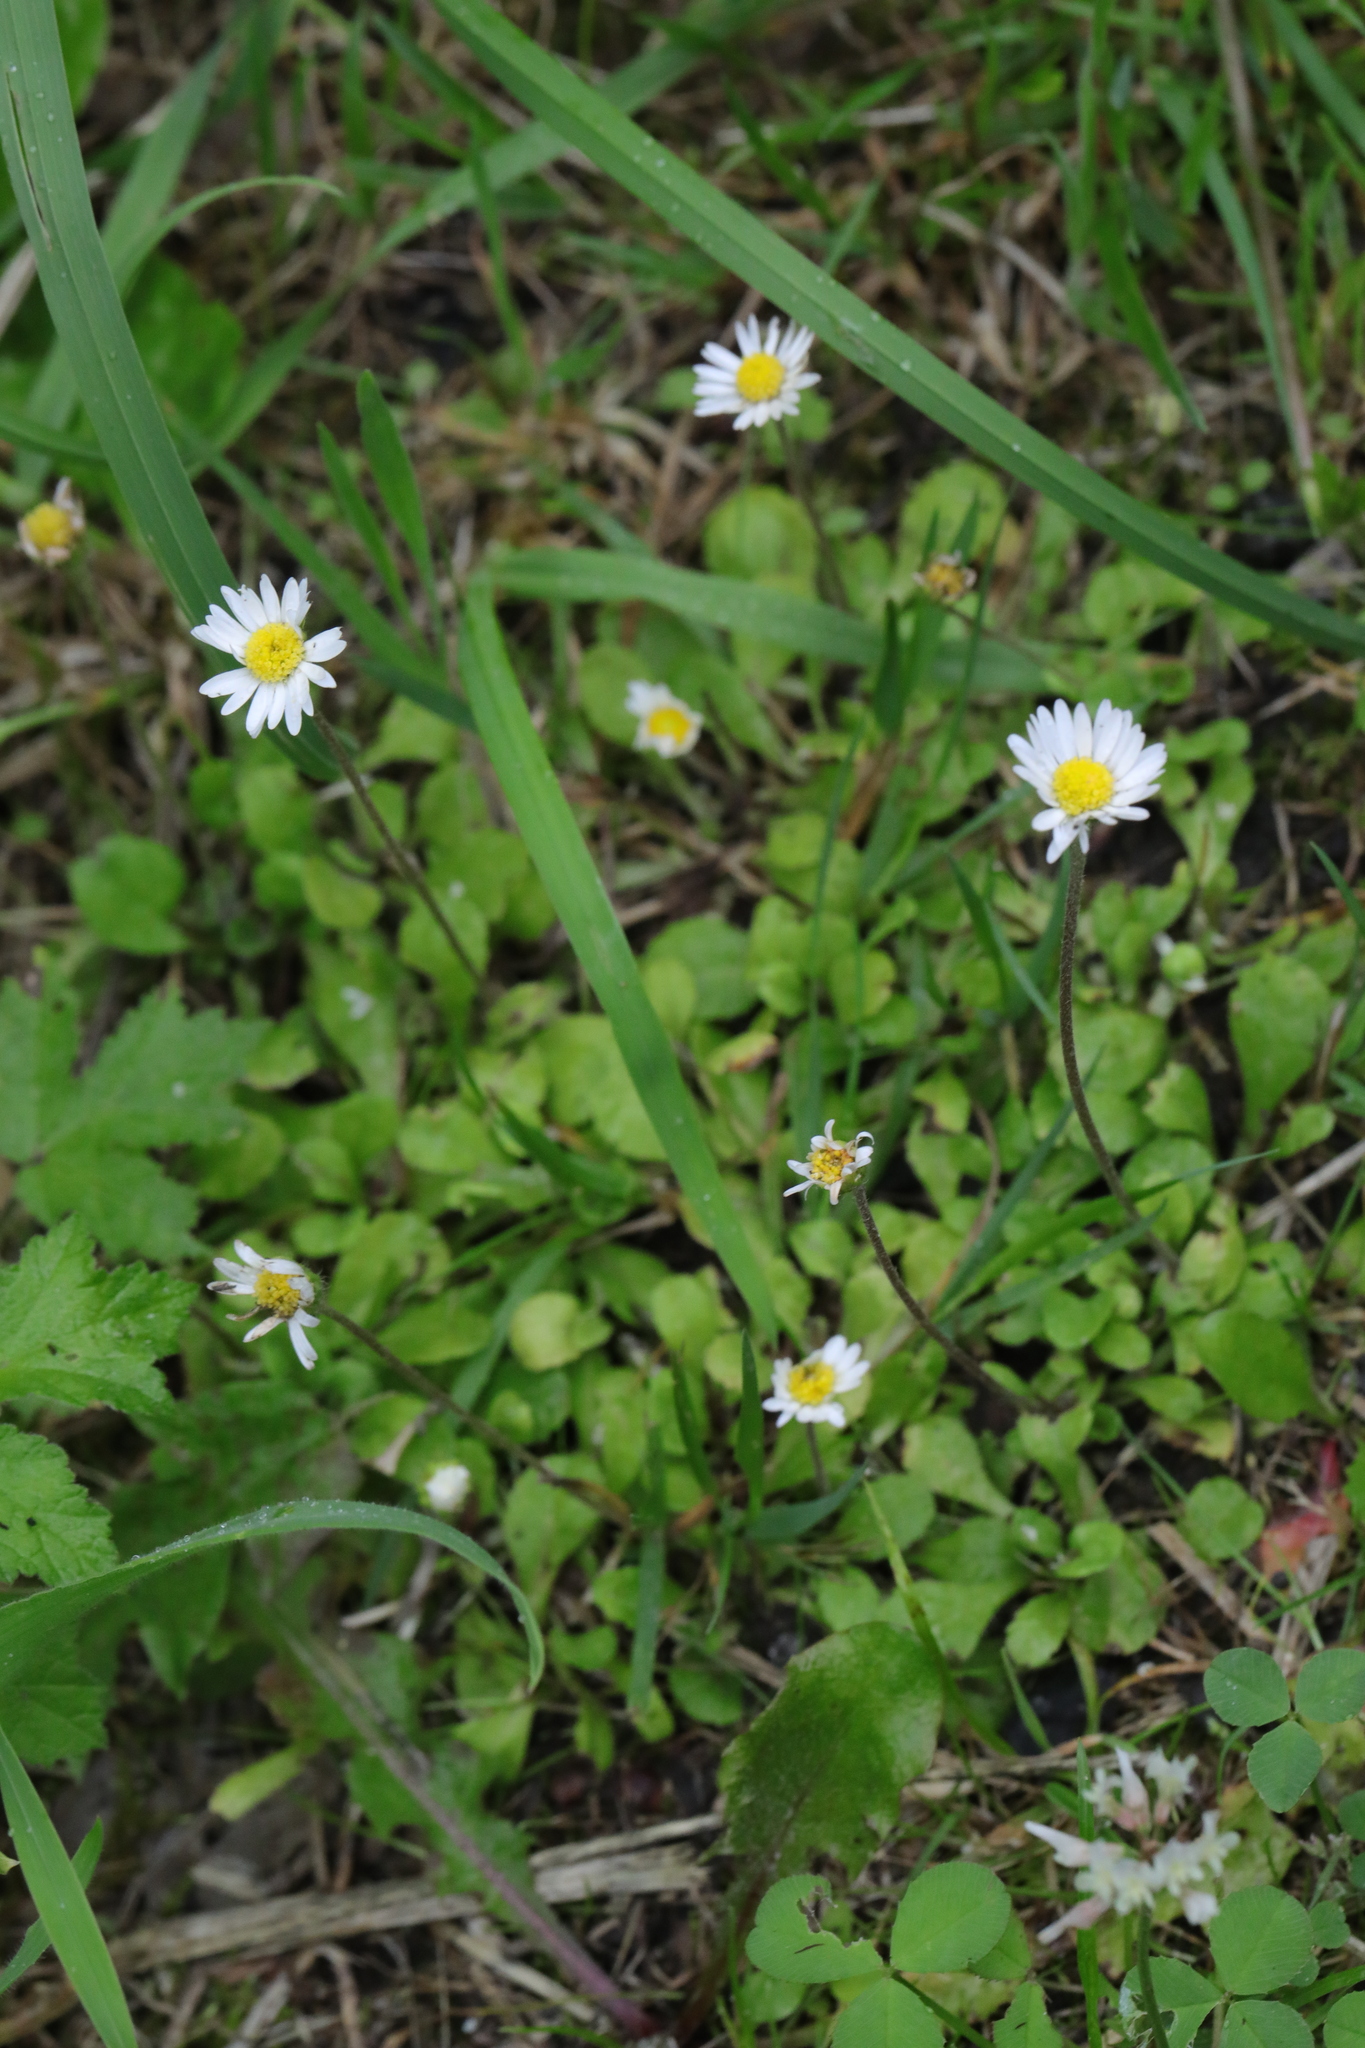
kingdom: Plantae
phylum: Tracheophyta
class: Magnoliopsida
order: Asterales
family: Asteraceae
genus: Bellis
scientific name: Bellis perennis
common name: Lawndaisy
